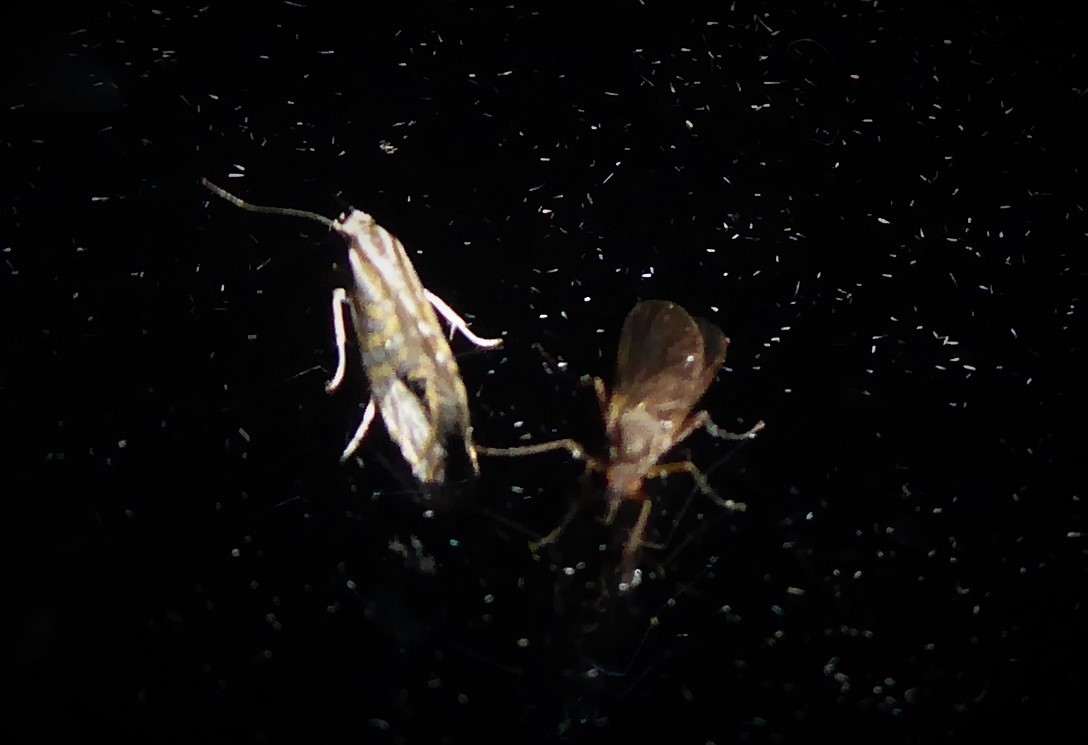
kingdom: Animalia
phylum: Arthropoda
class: Insecta
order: Lepidoptera
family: Glyphipterigidae
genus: Glyphipterix
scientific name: Glyphipterix triselena
